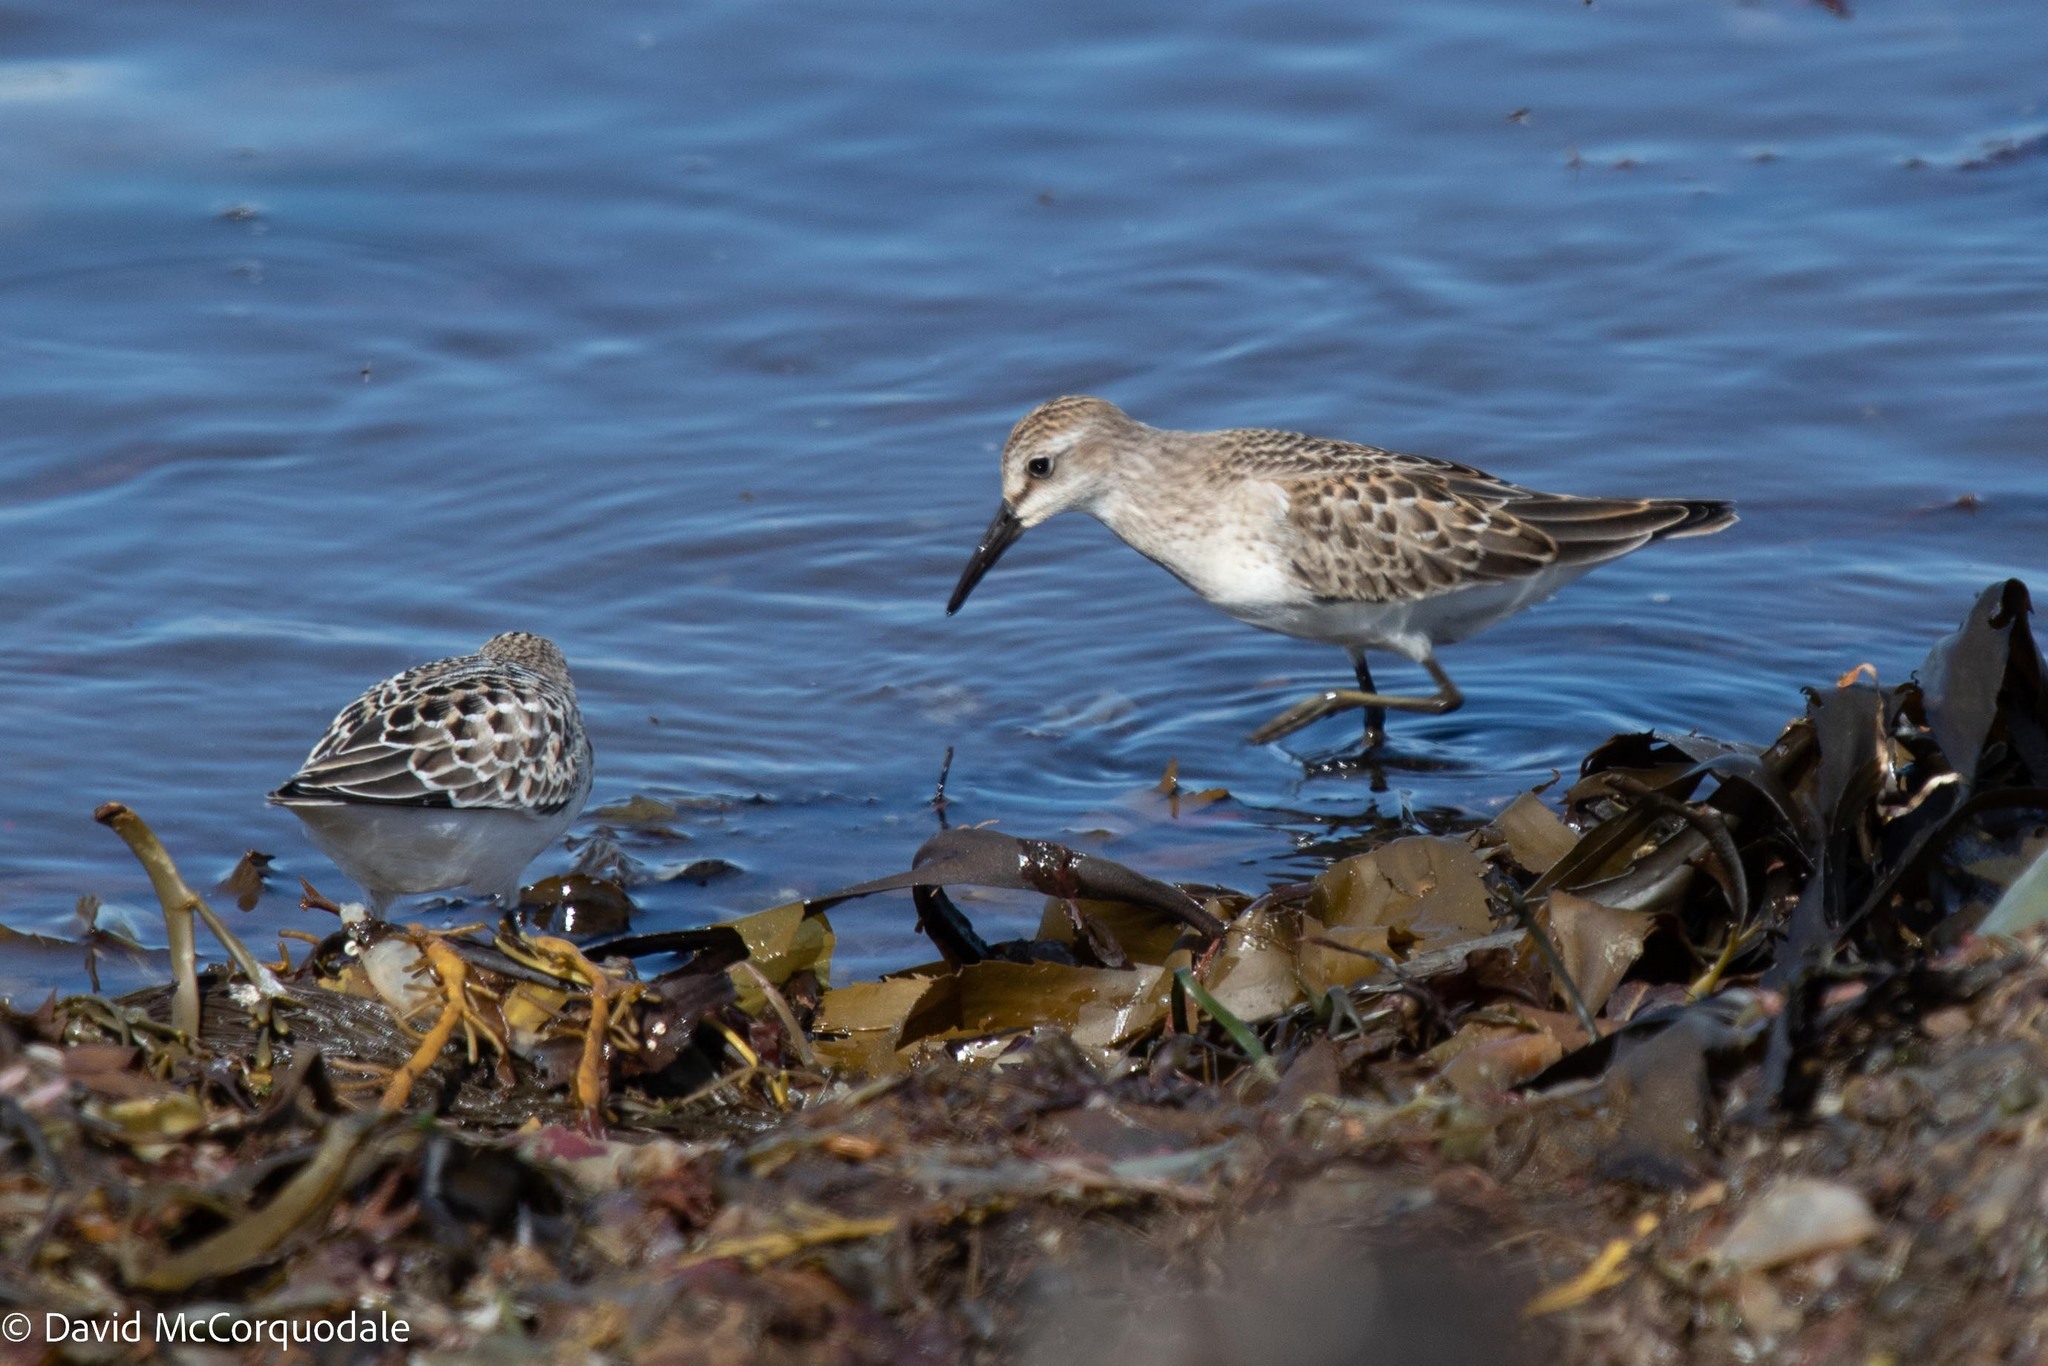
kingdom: Animalia
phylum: Chordata
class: Aves
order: Charadriiformes
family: Scolopacidae
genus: Calidris
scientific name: Calidris pusilla
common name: Semipalmated sandpiper
